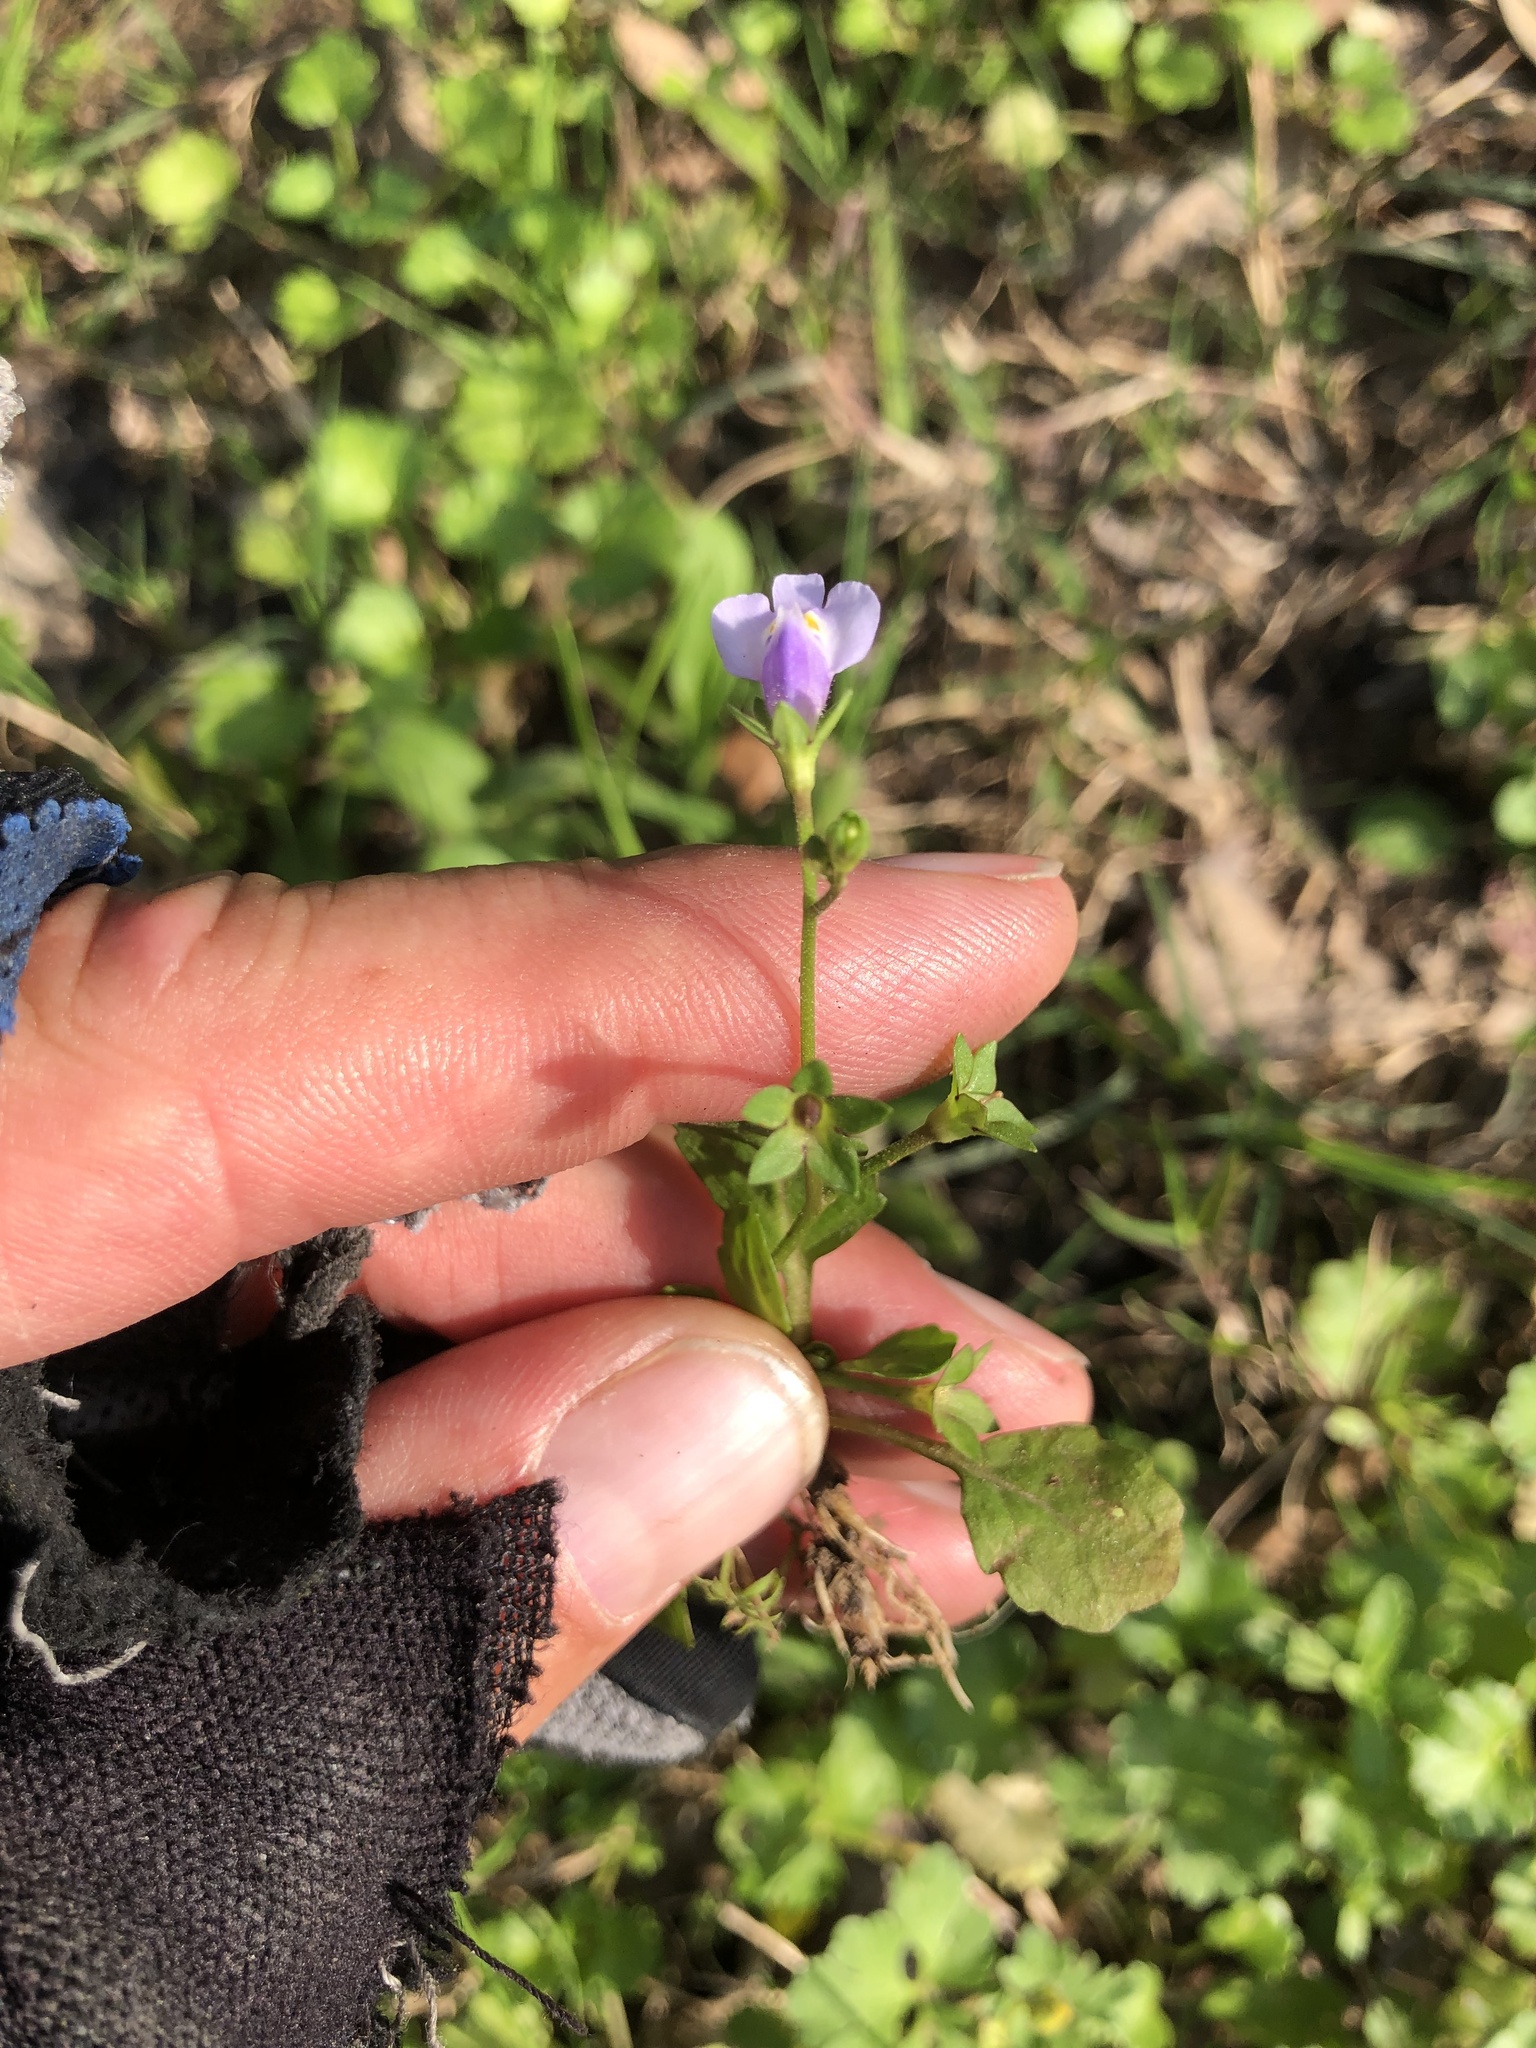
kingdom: Plantae
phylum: Tracheophyta
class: Magnoliopsida
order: Lamiales
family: Mazaceae
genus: Mazus
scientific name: Mazus pumilus
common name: Japanese mazus
